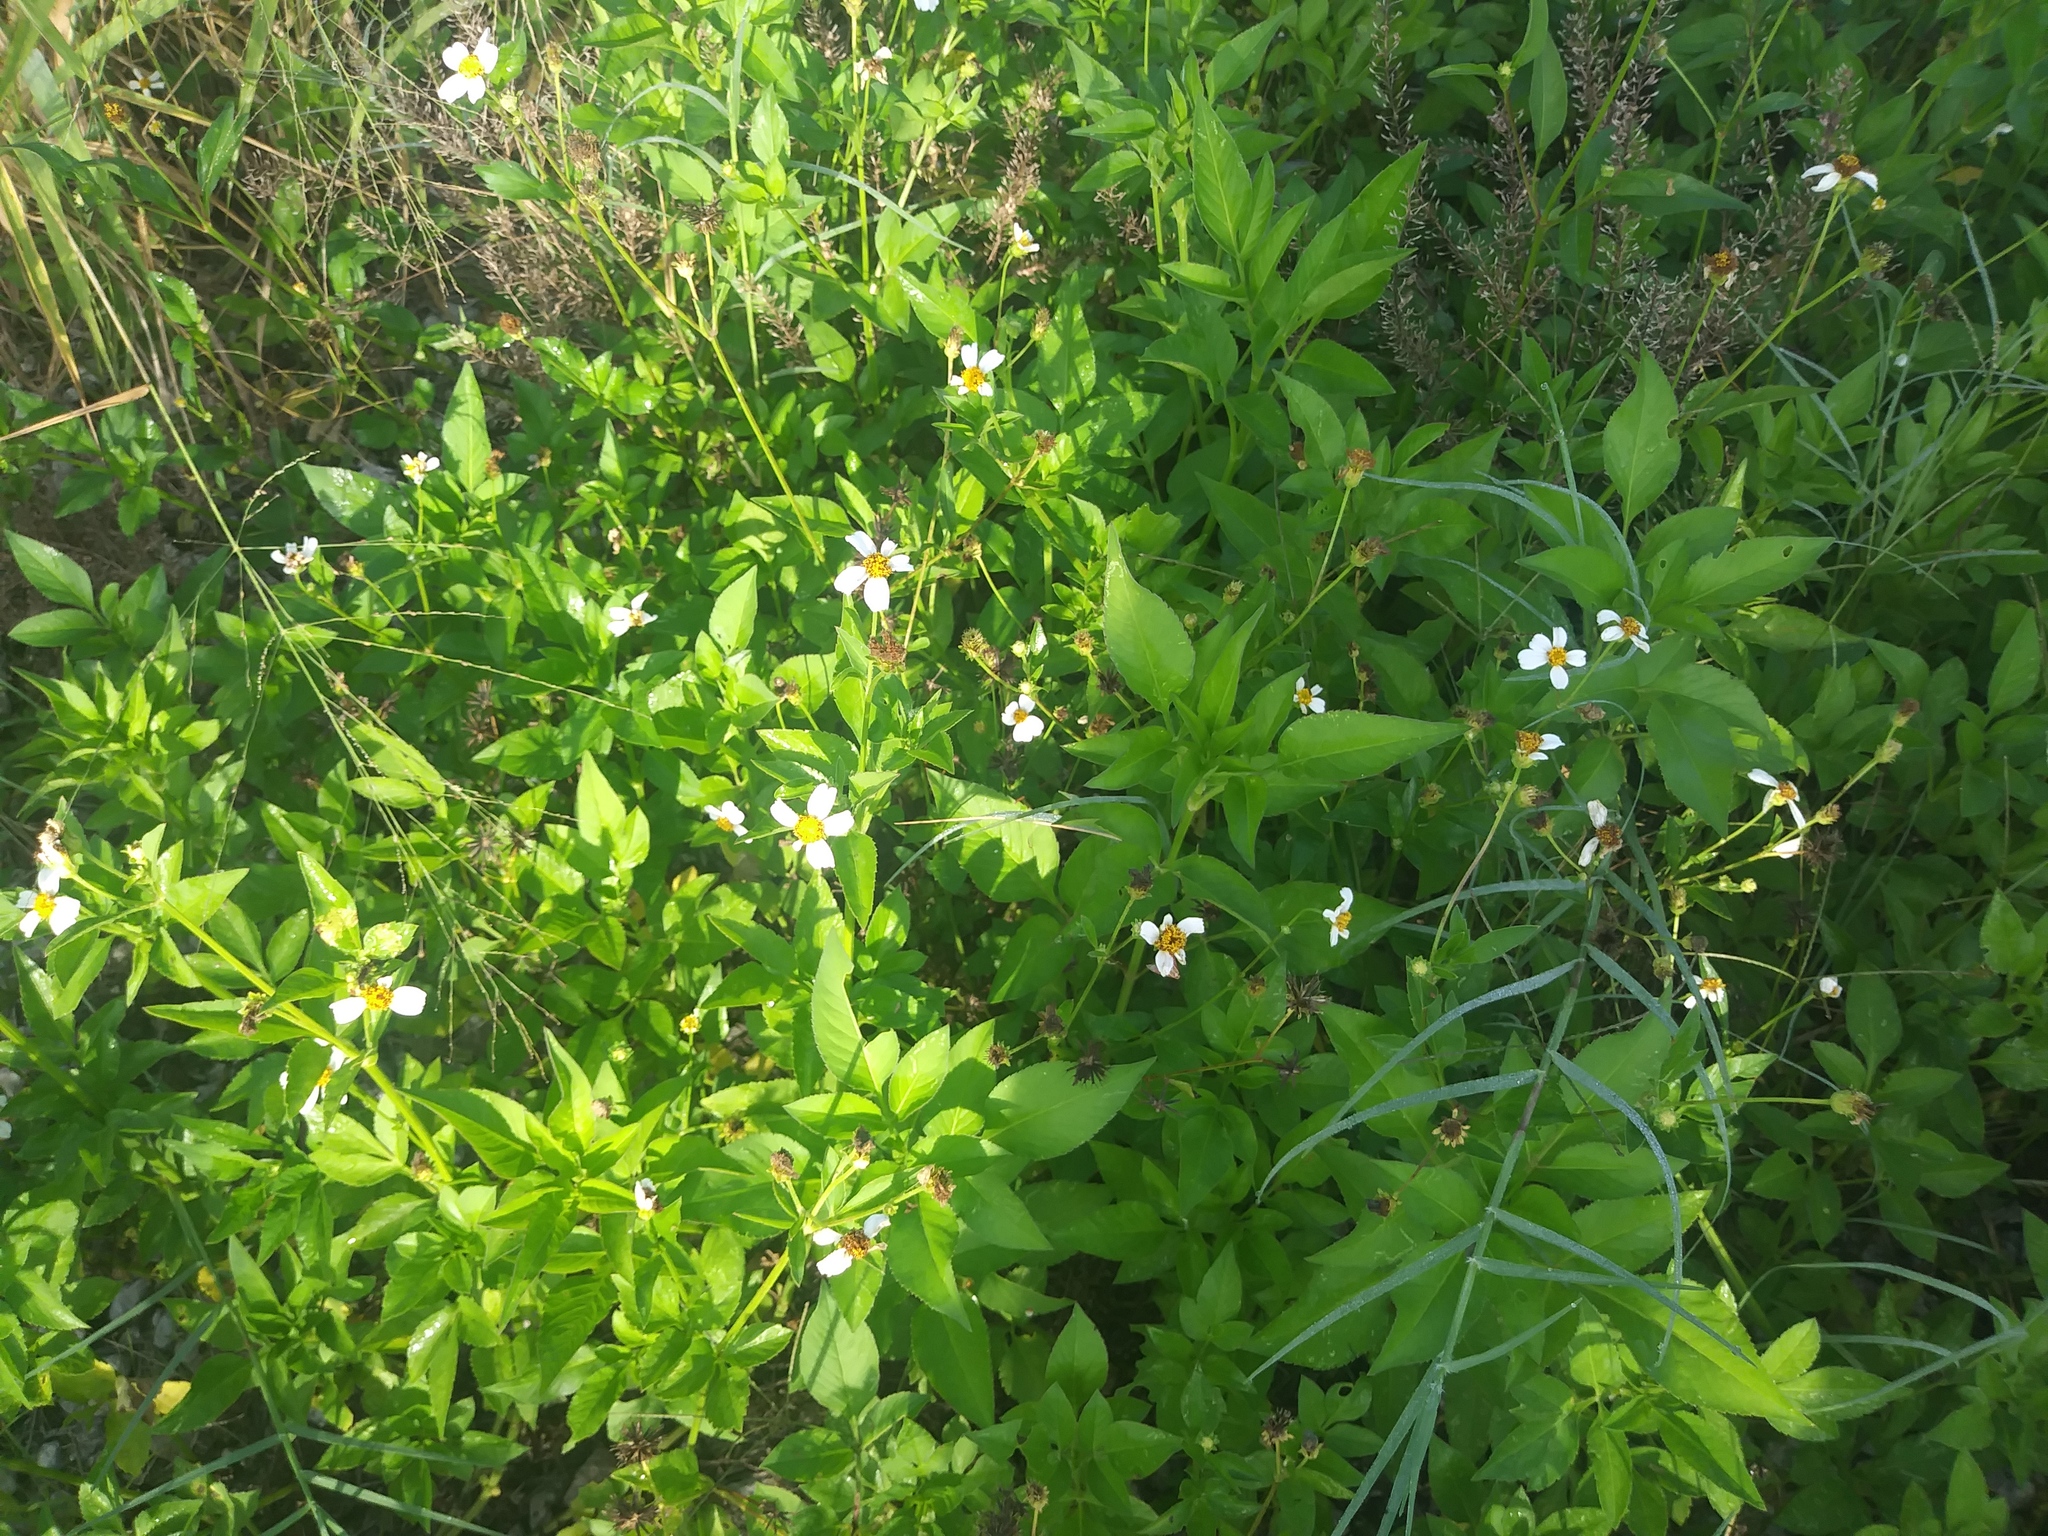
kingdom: Plantae
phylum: Tracheophyta
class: Magnoliopsida
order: Asterales
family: Asteraceae
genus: Bidens
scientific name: Bidens alba
